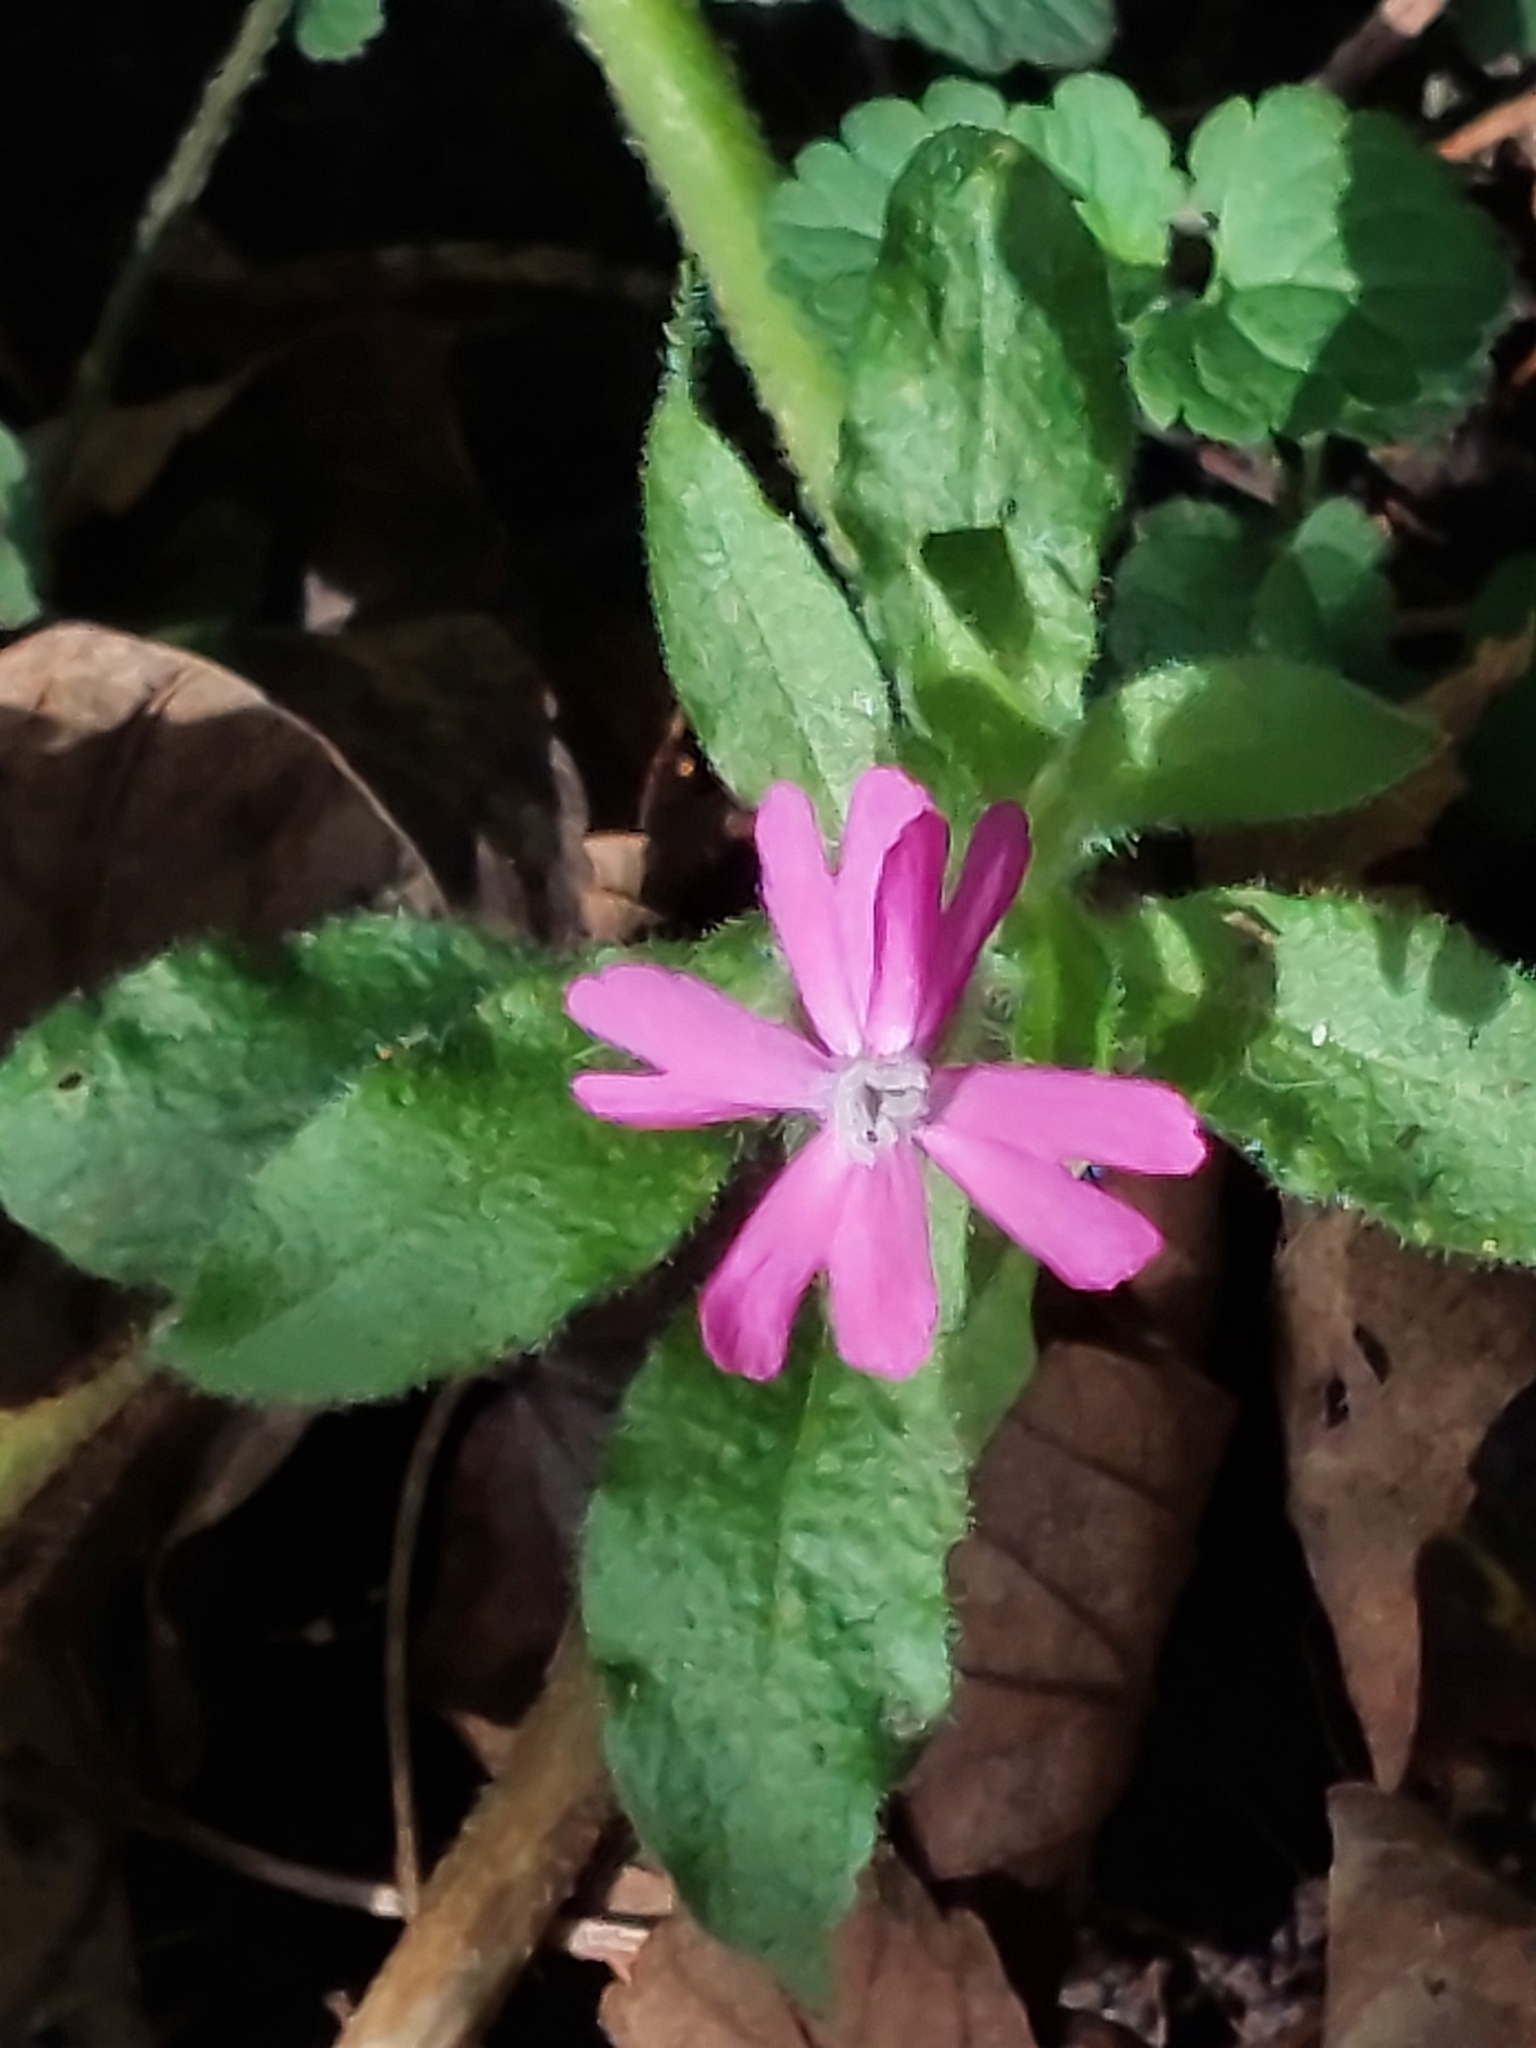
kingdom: Plantae
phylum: Tracheophyta
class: Magnoliopsida
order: Caryophyllales
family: Caryophyllaceae
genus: Silene
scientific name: Silene dioica
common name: Red campion
